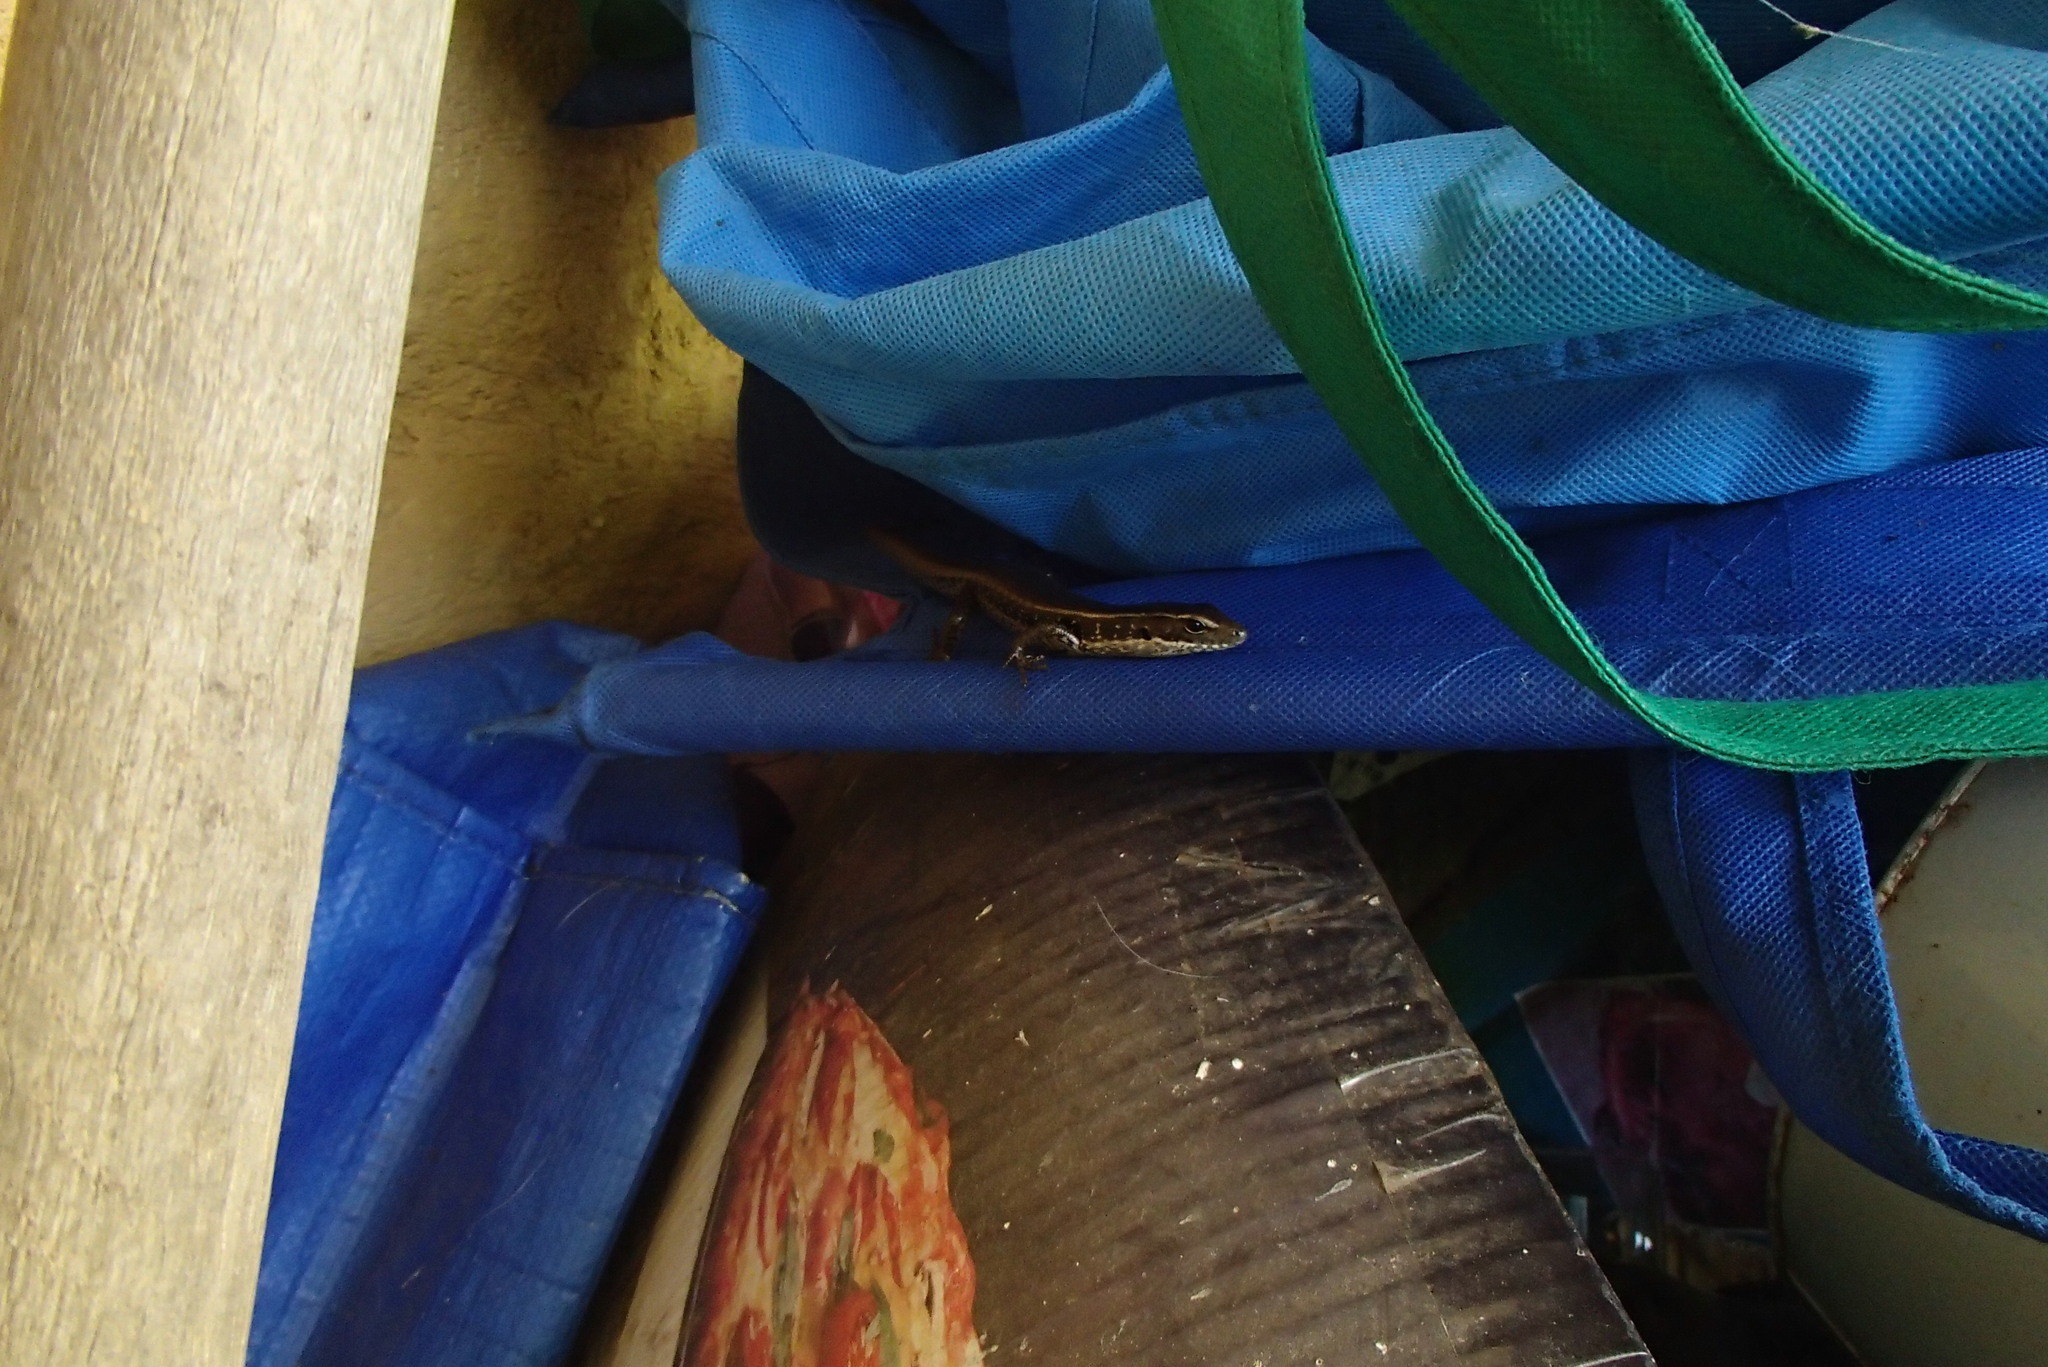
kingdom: Animalia
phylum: Chordata
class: Squamata
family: Scincidae
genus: Eulamprus
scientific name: Eulamprus quoyii
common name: Eastern water skink
